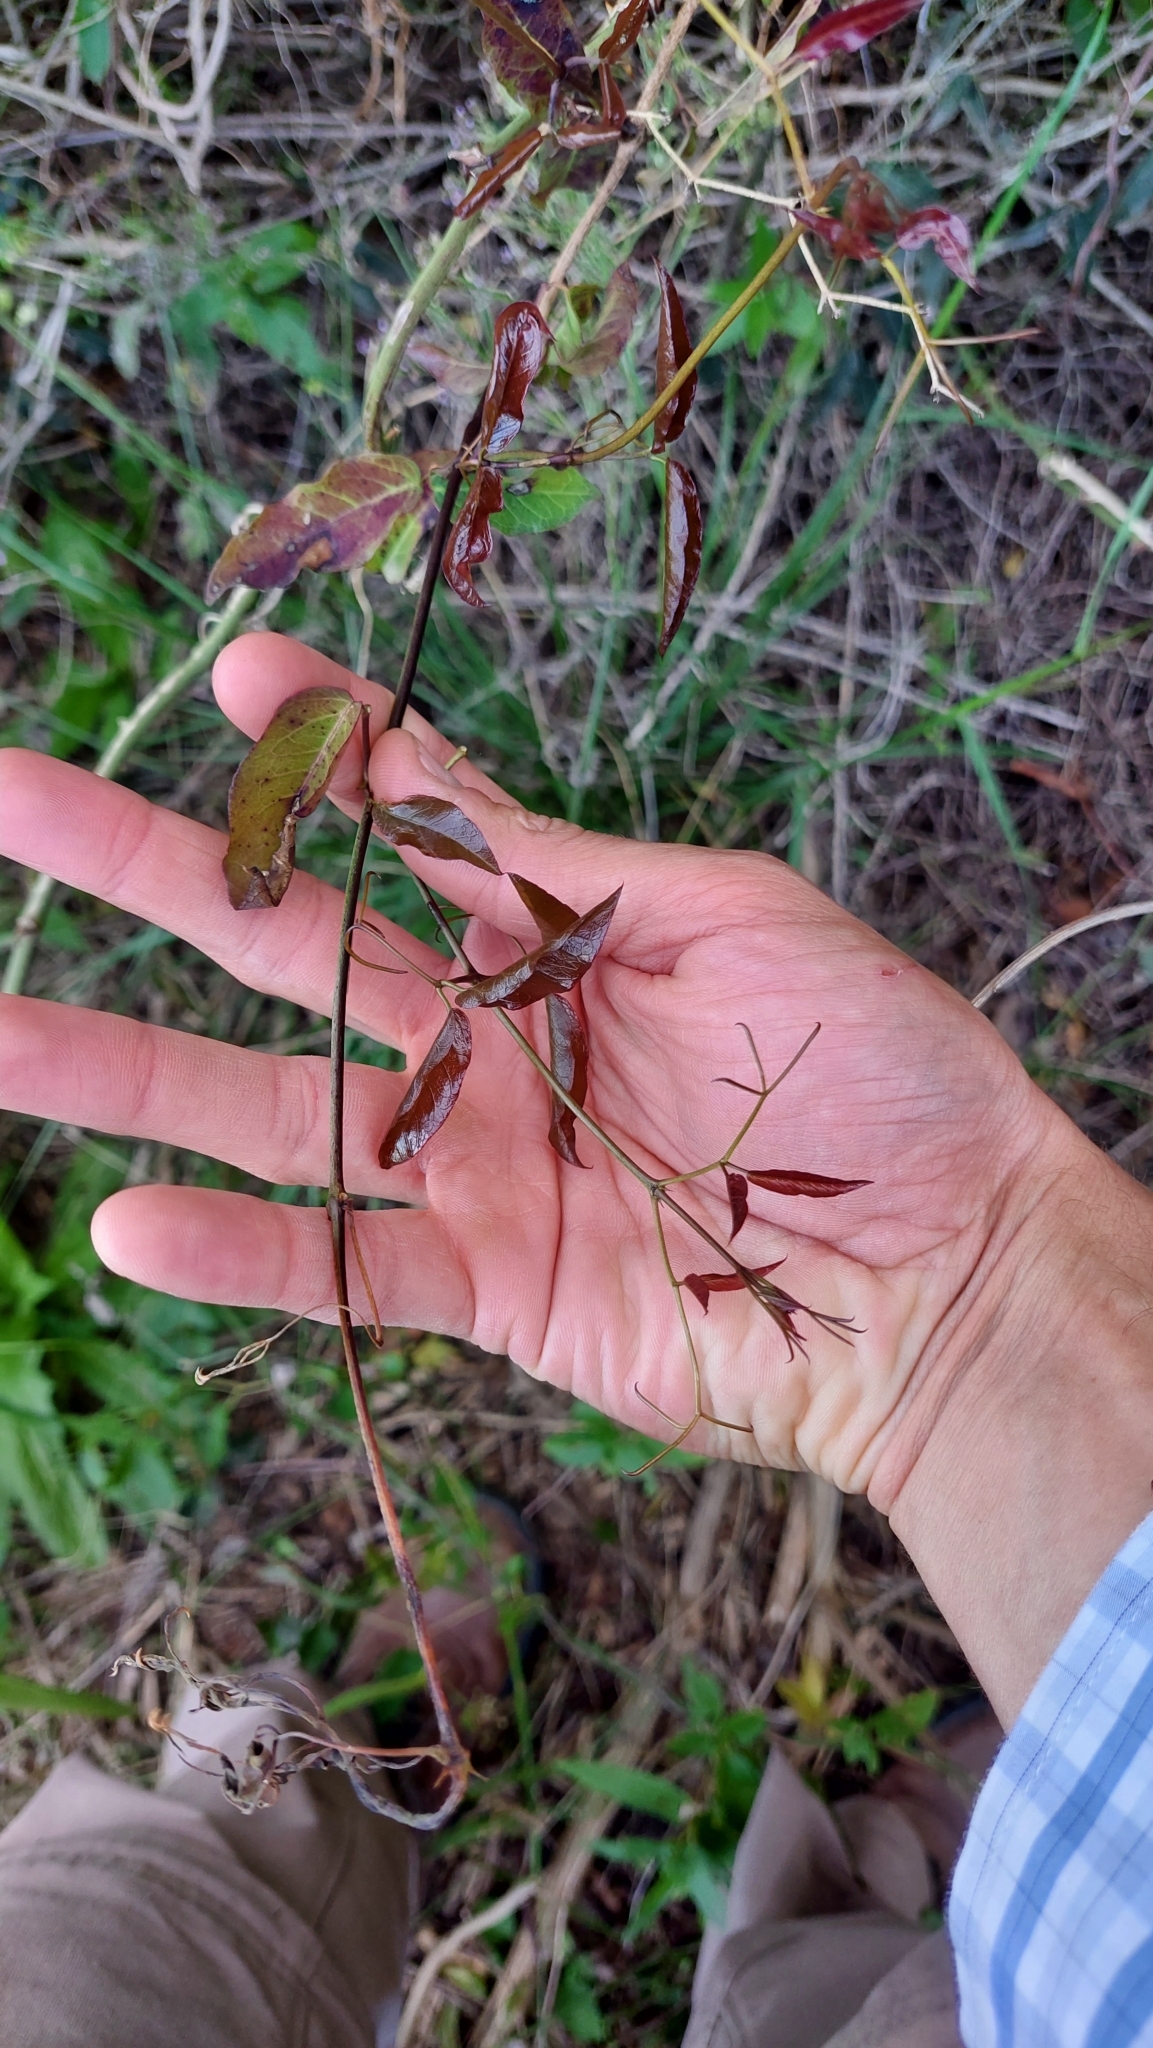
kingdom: Plantae
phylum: Tracheophyta
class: Magnoliopsida
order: Lamiales
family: Bignoniaceae
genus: Dolichandra
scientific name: Dolichandra cynanchoides
